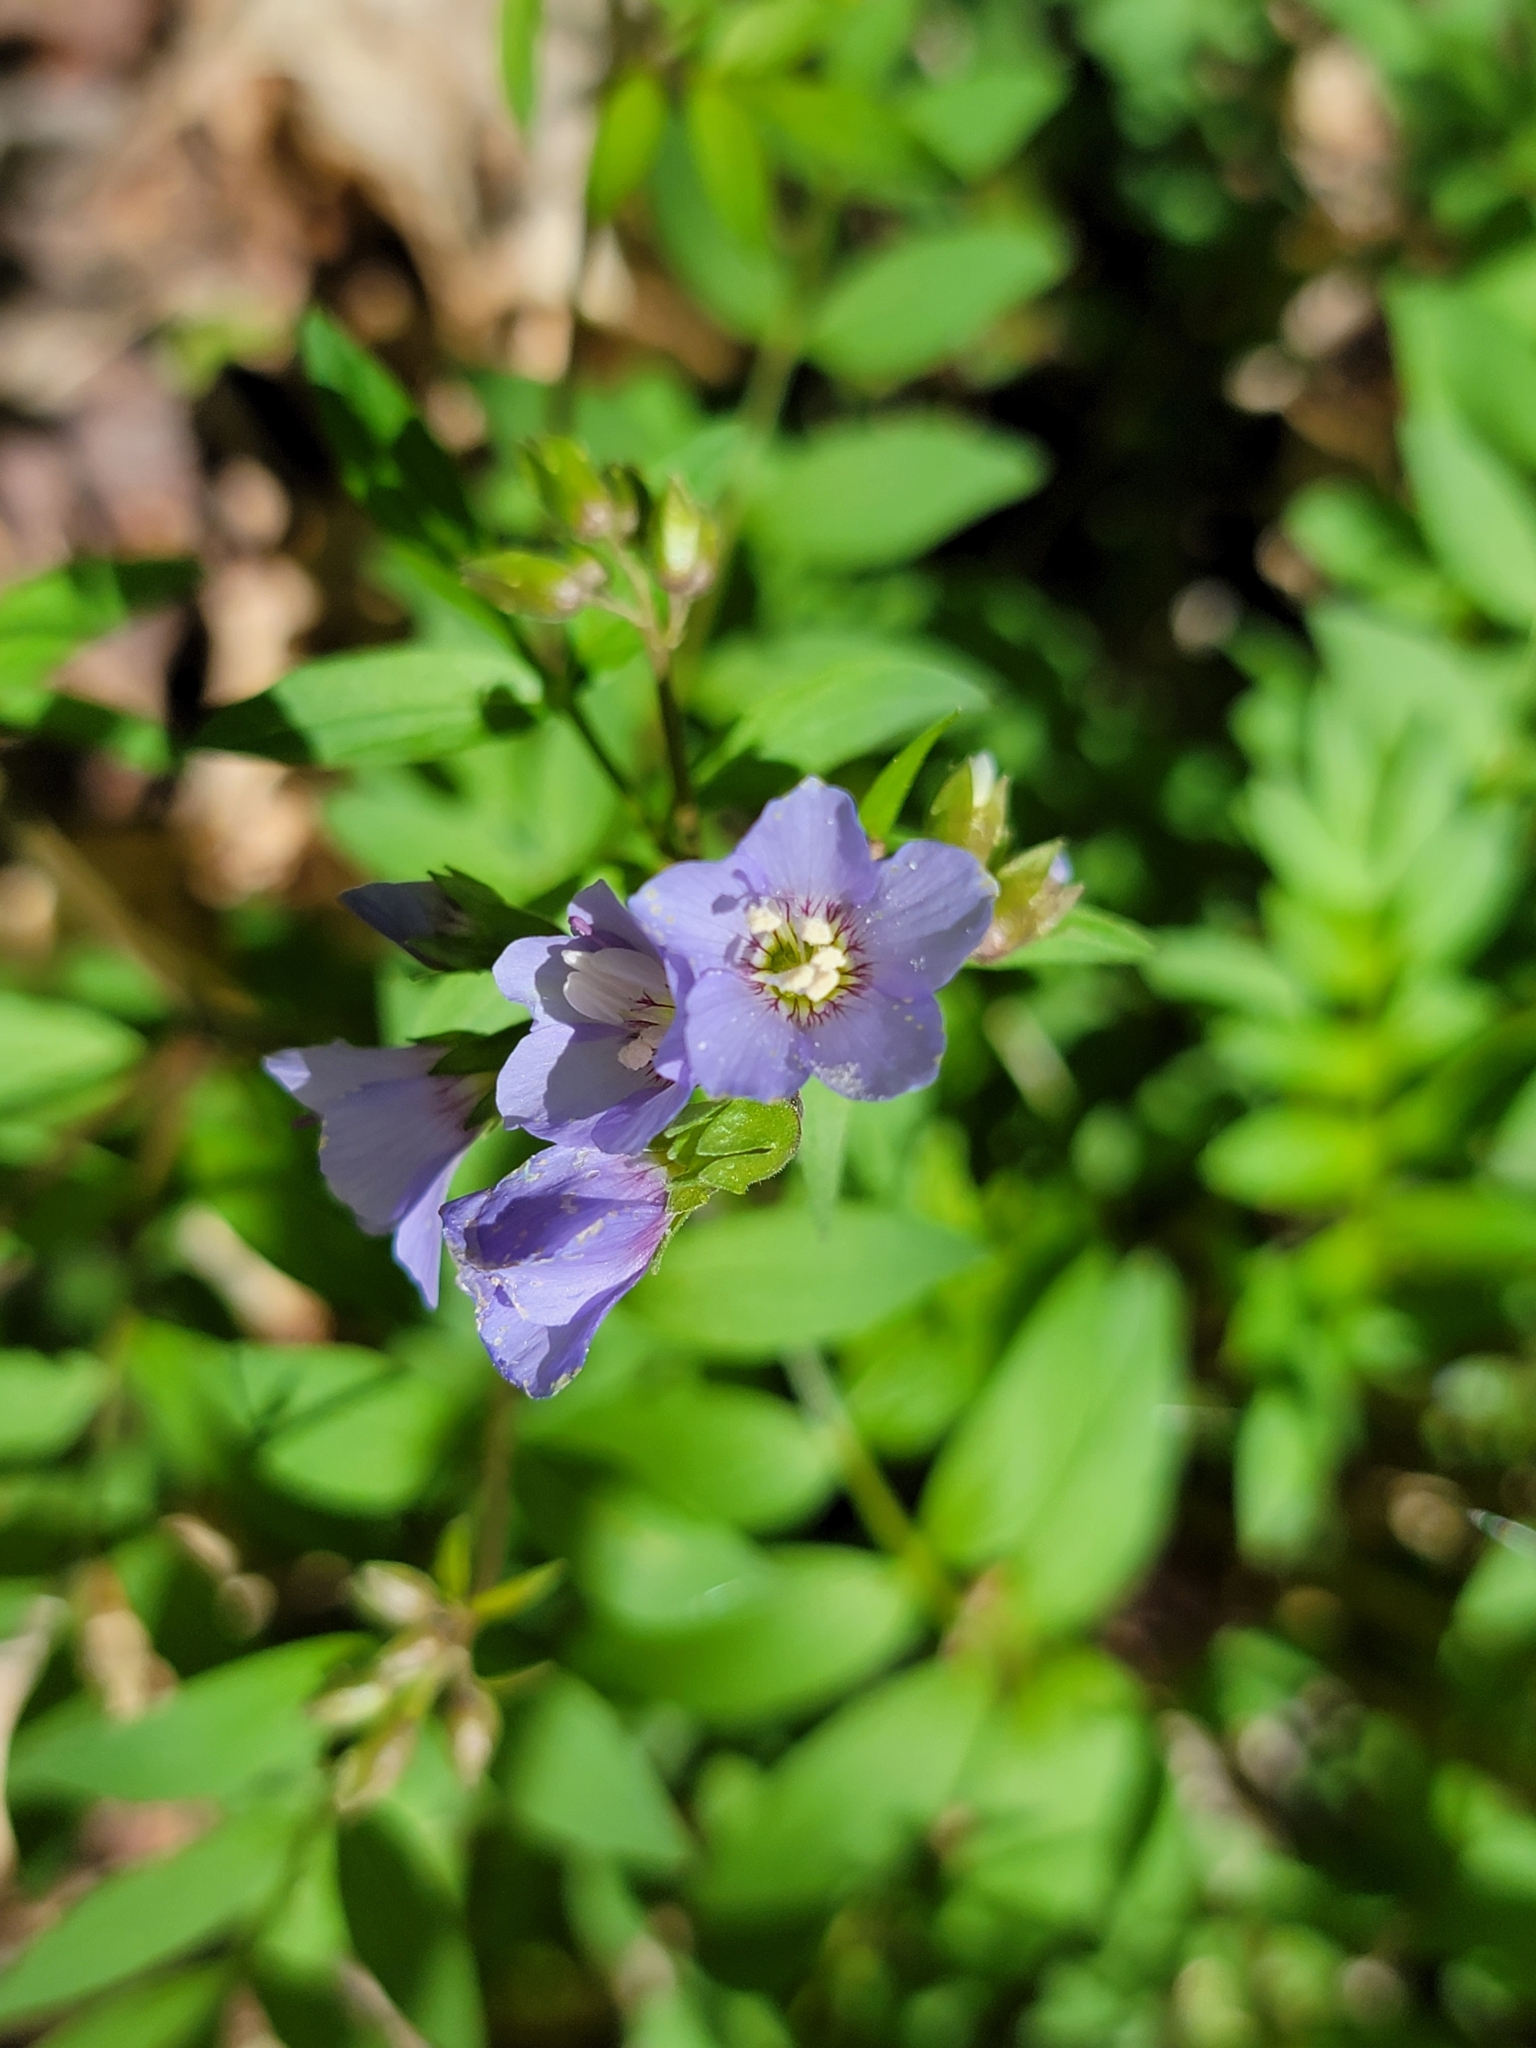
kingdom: Plantae
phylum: Tracheophyta
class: Magnoliopsida
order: Ericales
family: Polemoniaceae
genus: Polemonium
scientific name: Polemonium reptans
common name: Creeping jacob's-ladder
